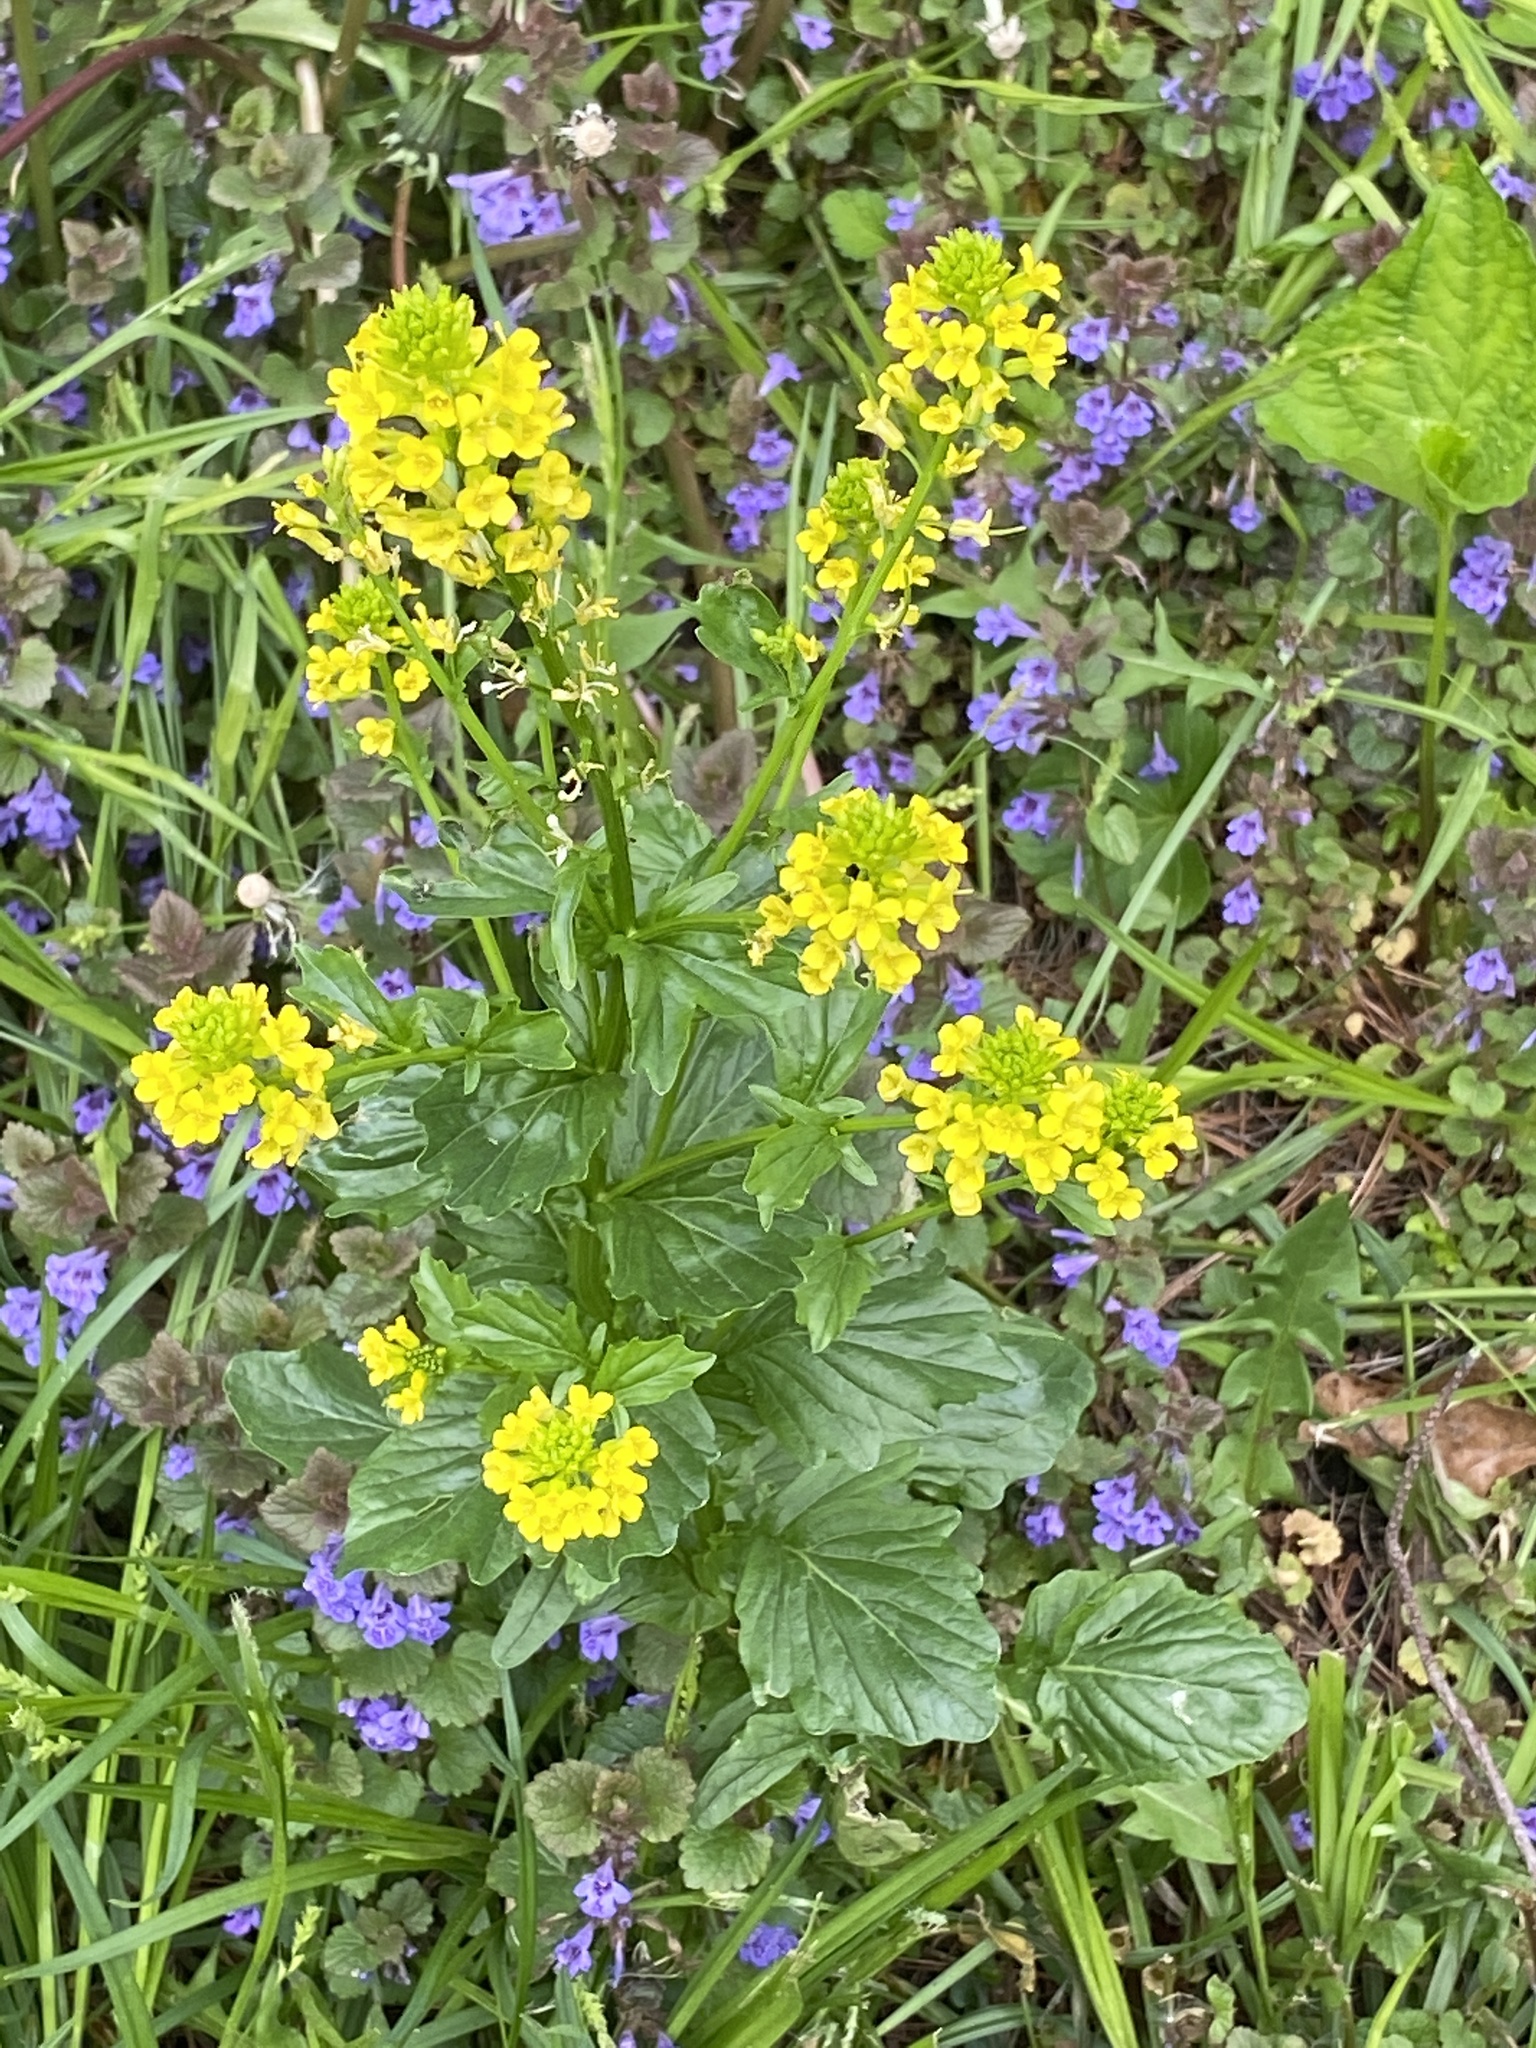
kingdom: Plantae
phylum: Tracheophyta
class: Magnoliopsida
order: Brassicales
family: Brassicaceae
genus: Barbarea
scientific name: Barbarea vulgaris
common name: Cressy-greens
